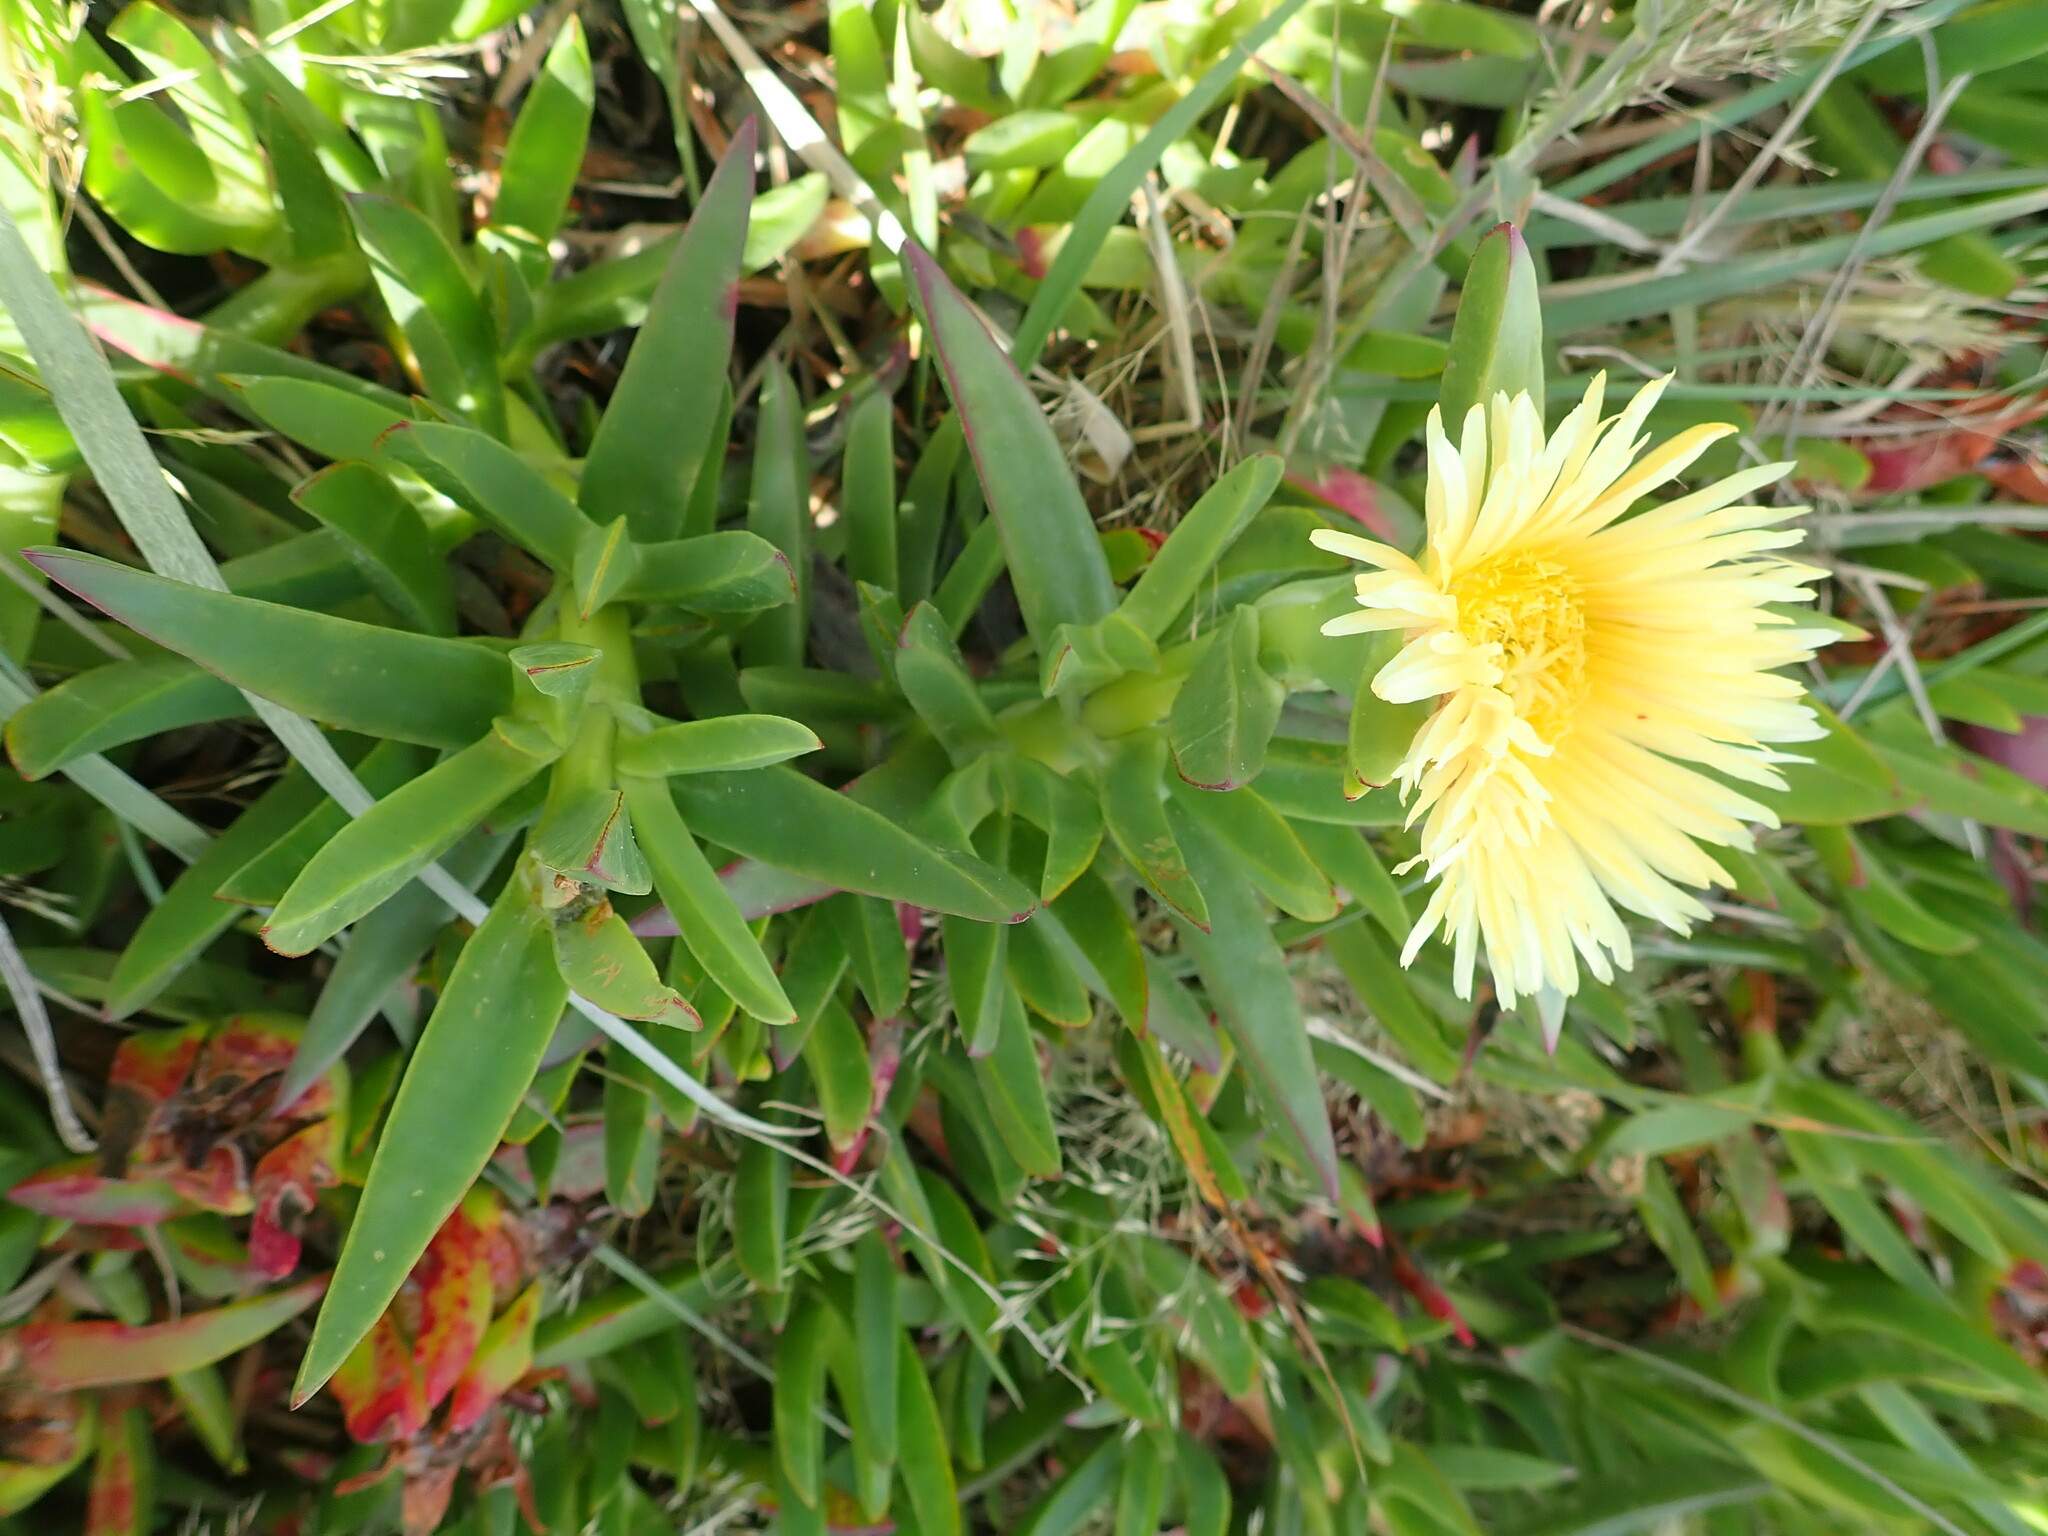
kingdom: Plantae
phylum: Tracheophyta
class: Magnoliopsida
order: Caryophyllales
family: Aizoaceae
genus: Carpobrotus
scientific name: Carpobrotus edulis
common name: Hottentot-fig
